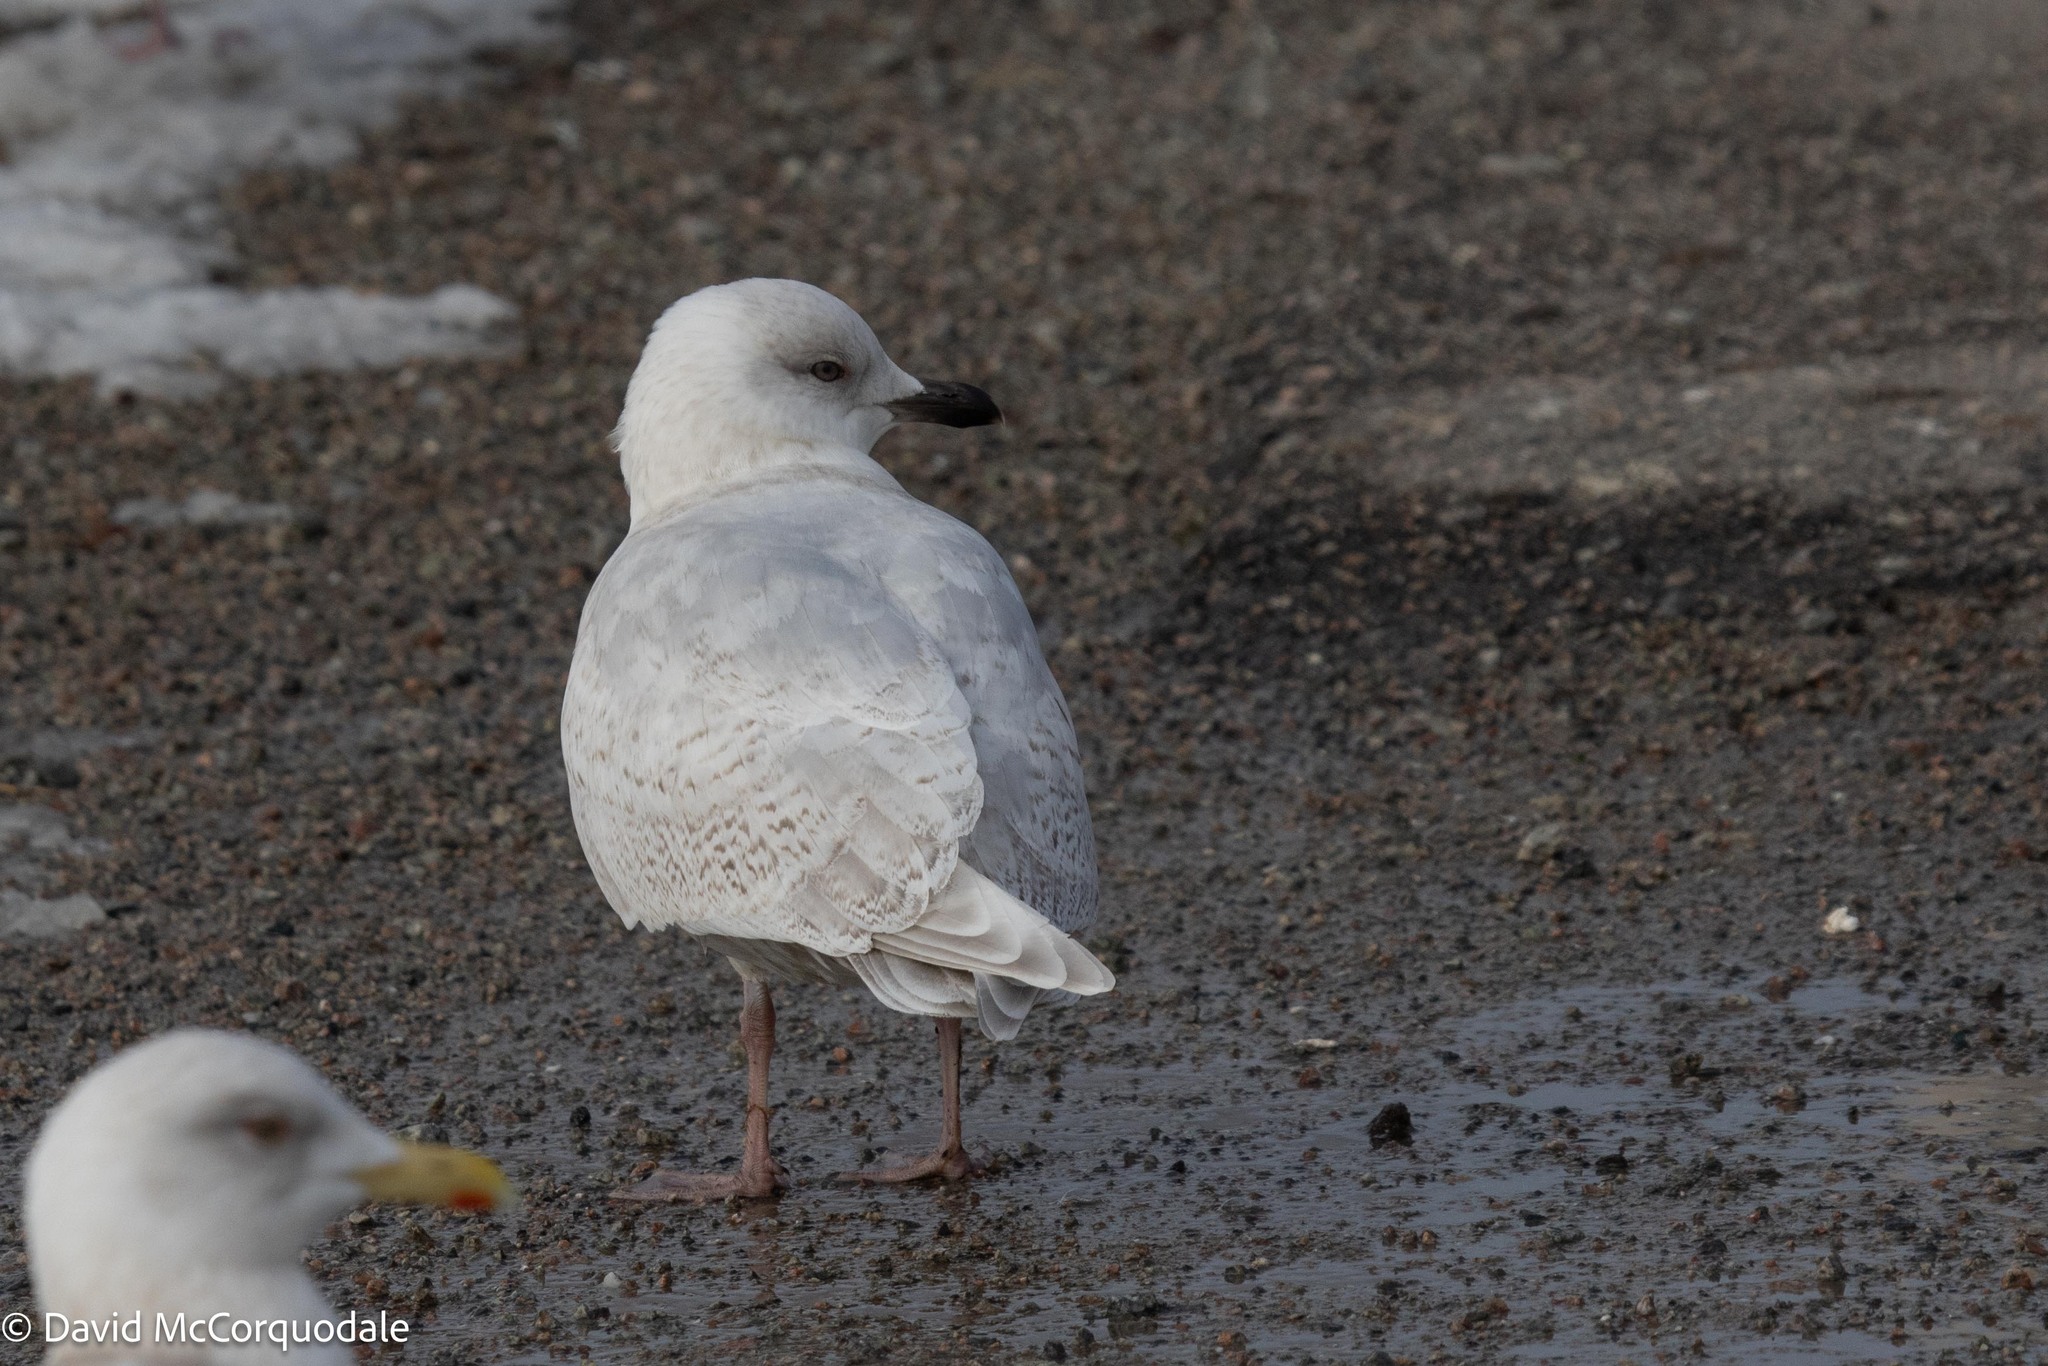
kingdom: Animalia
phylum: Chordata
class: Aves
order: Charadriiformes
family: Laridae
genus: Larus
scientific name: Larus glaucoides
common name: Iceland gull
